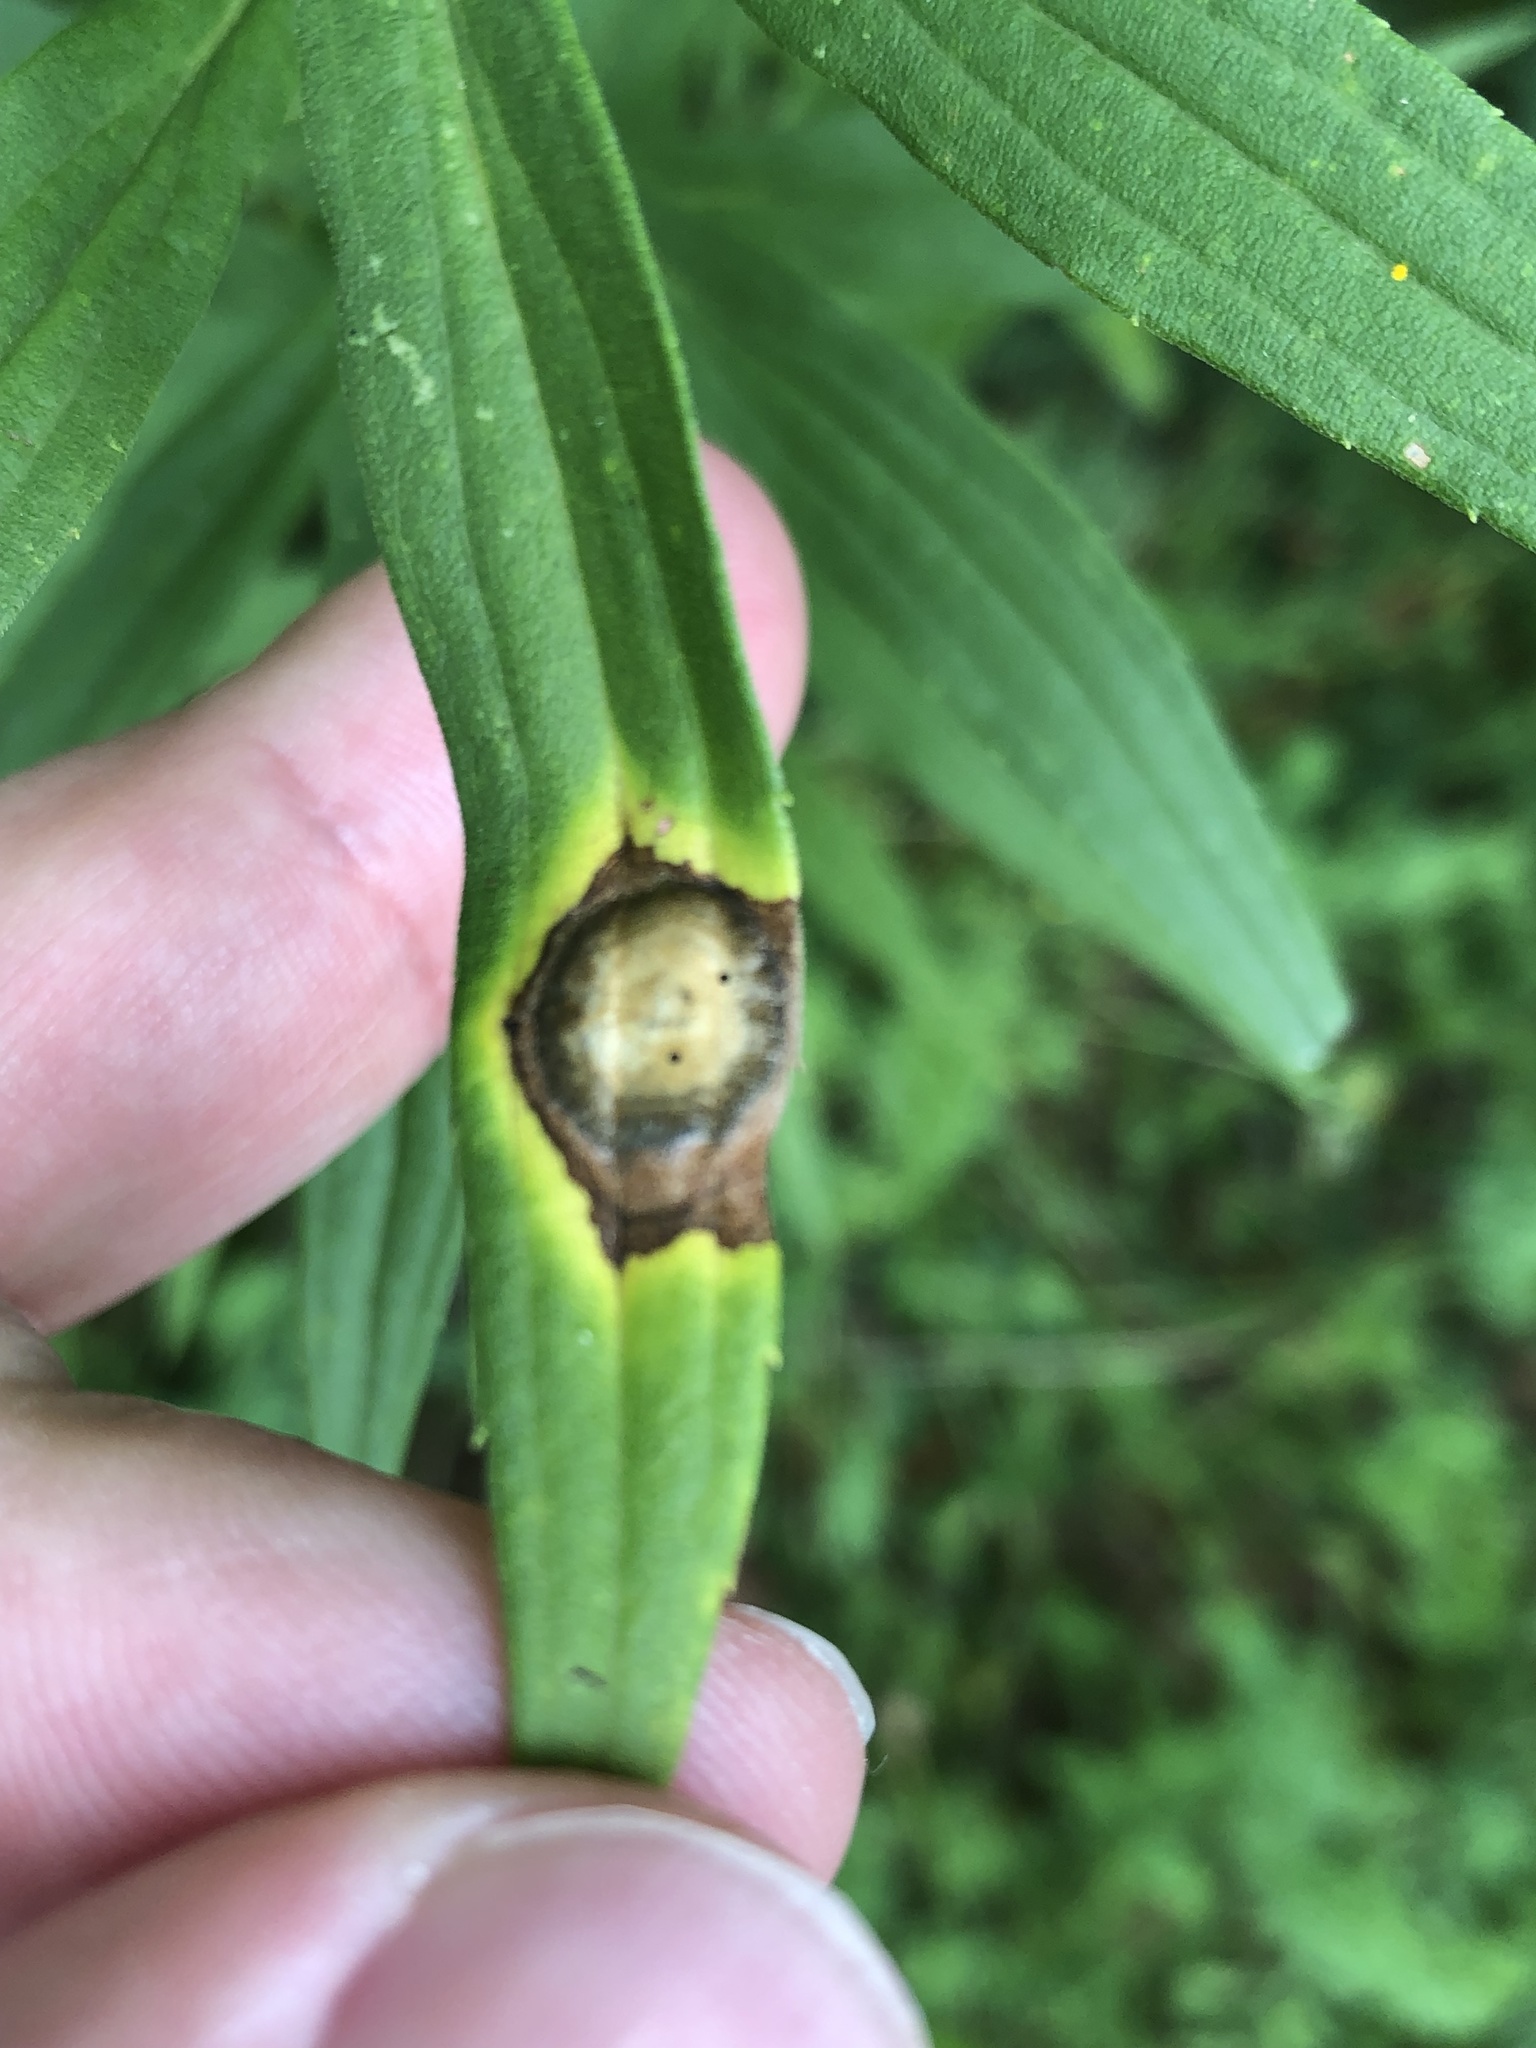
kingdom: Animalia
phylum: Arthropoda
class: Insecta
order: Diptera
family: Cecidomyiidae
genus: Asteromyia
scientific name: Asteromyia carbonifera
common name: Carbonifera goldenrod gall midge
